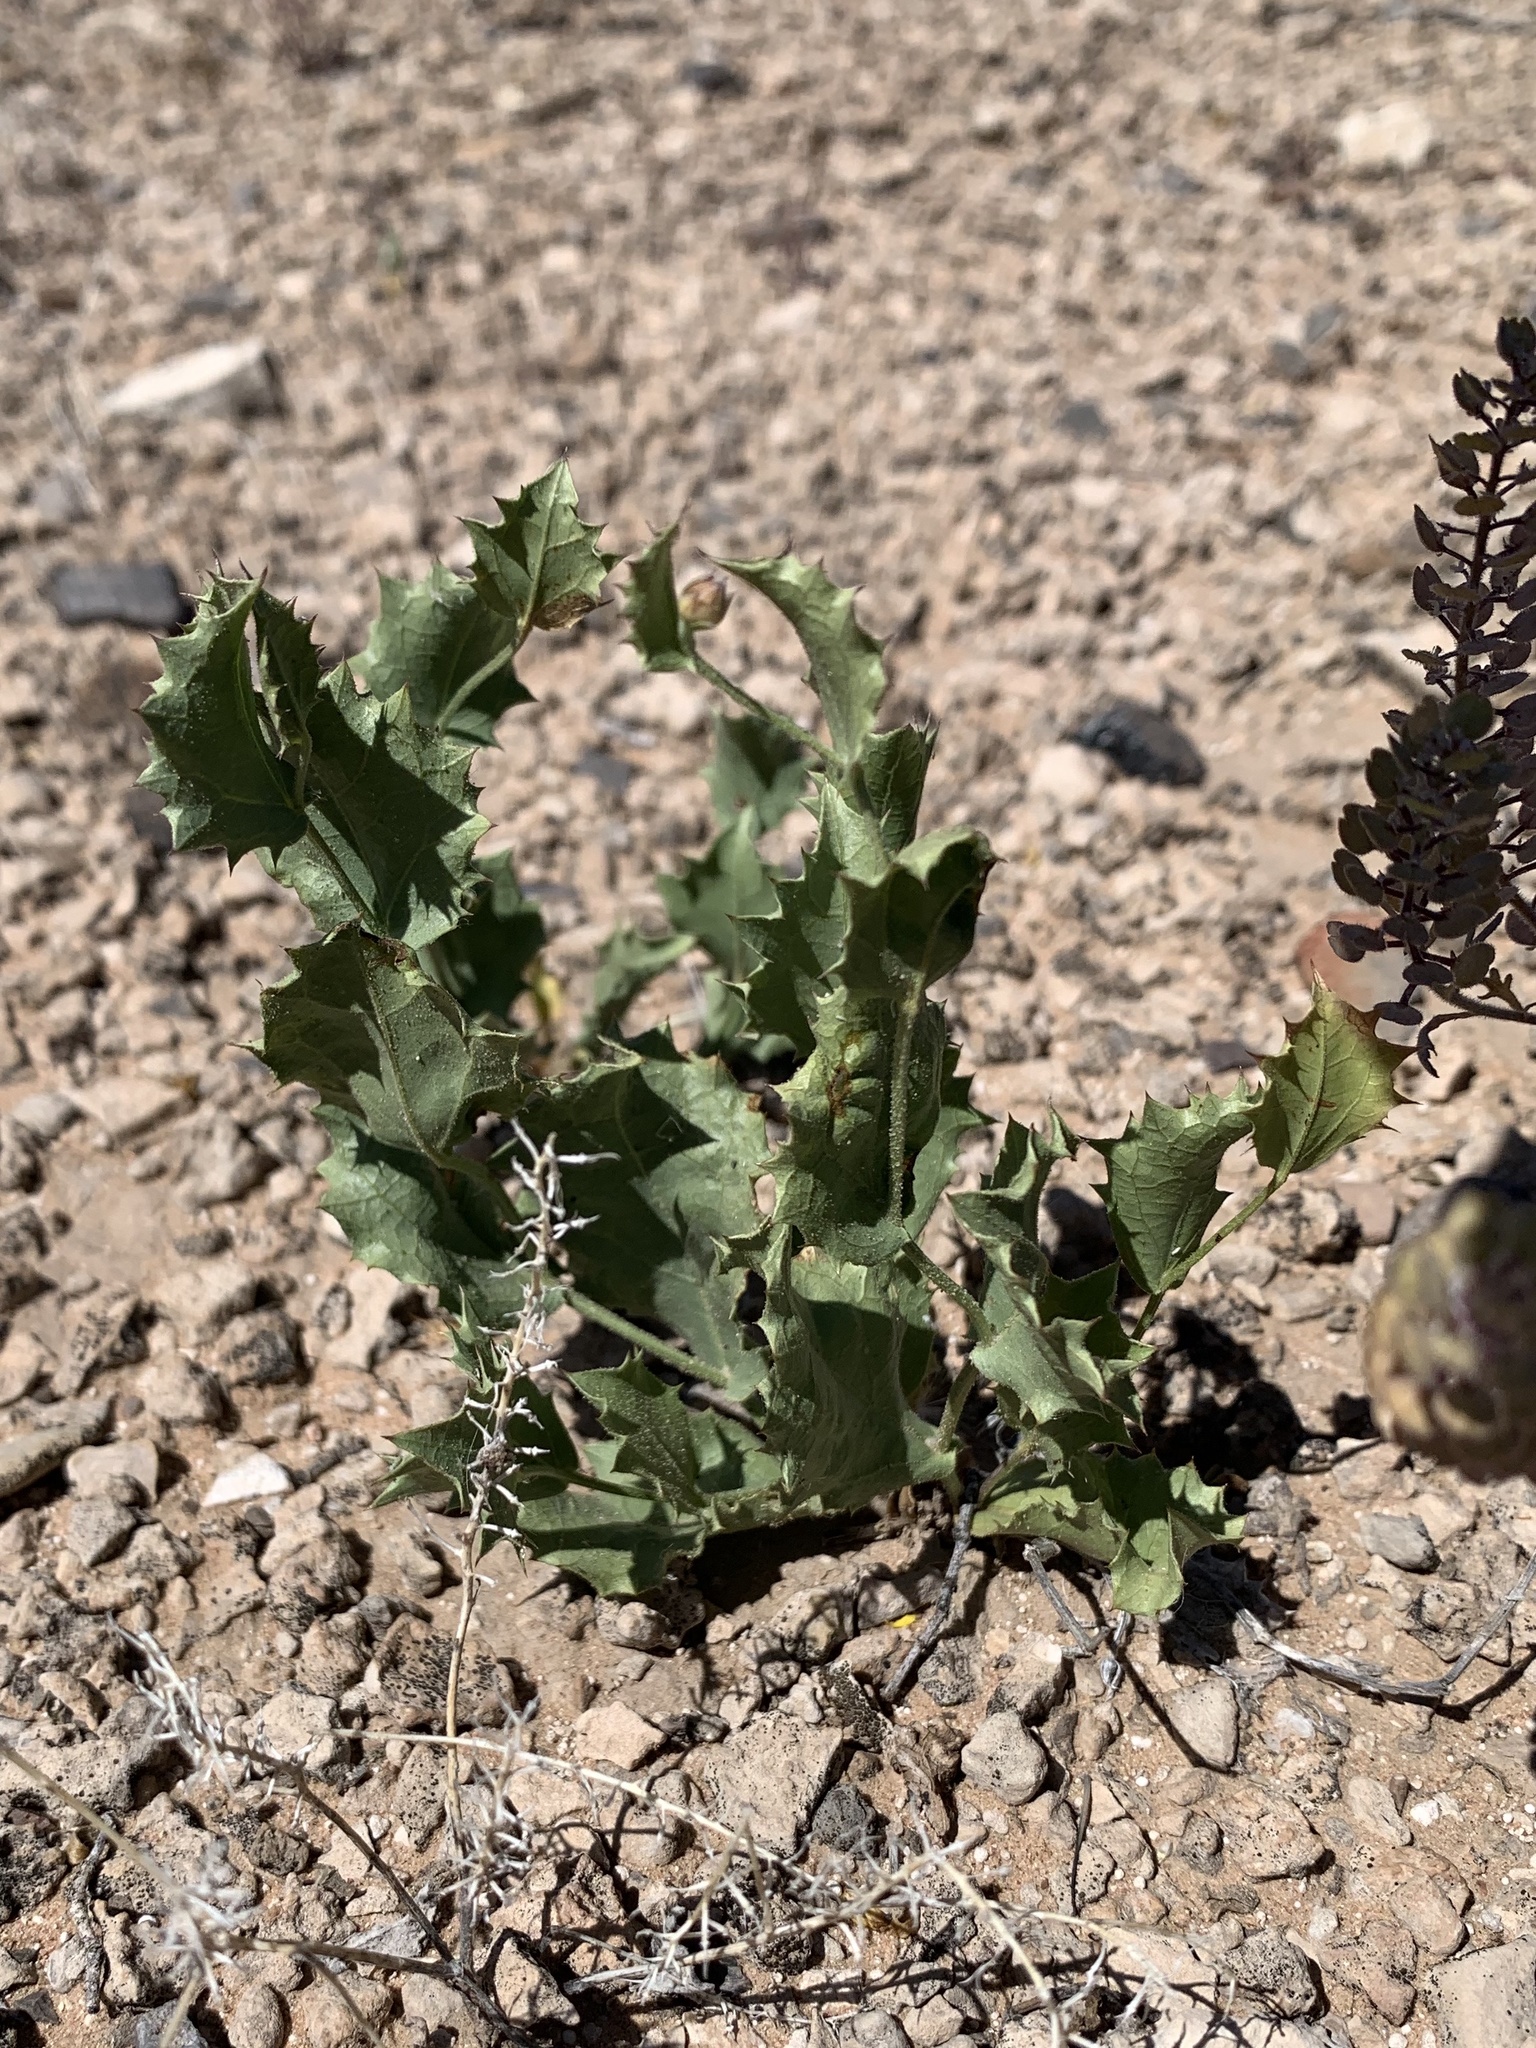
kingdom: Plantae
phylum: Tracheophyta
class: Magnoliopsida
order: Asterales
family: Asteraceae
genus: Acourtia
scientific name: Acourtia nana
